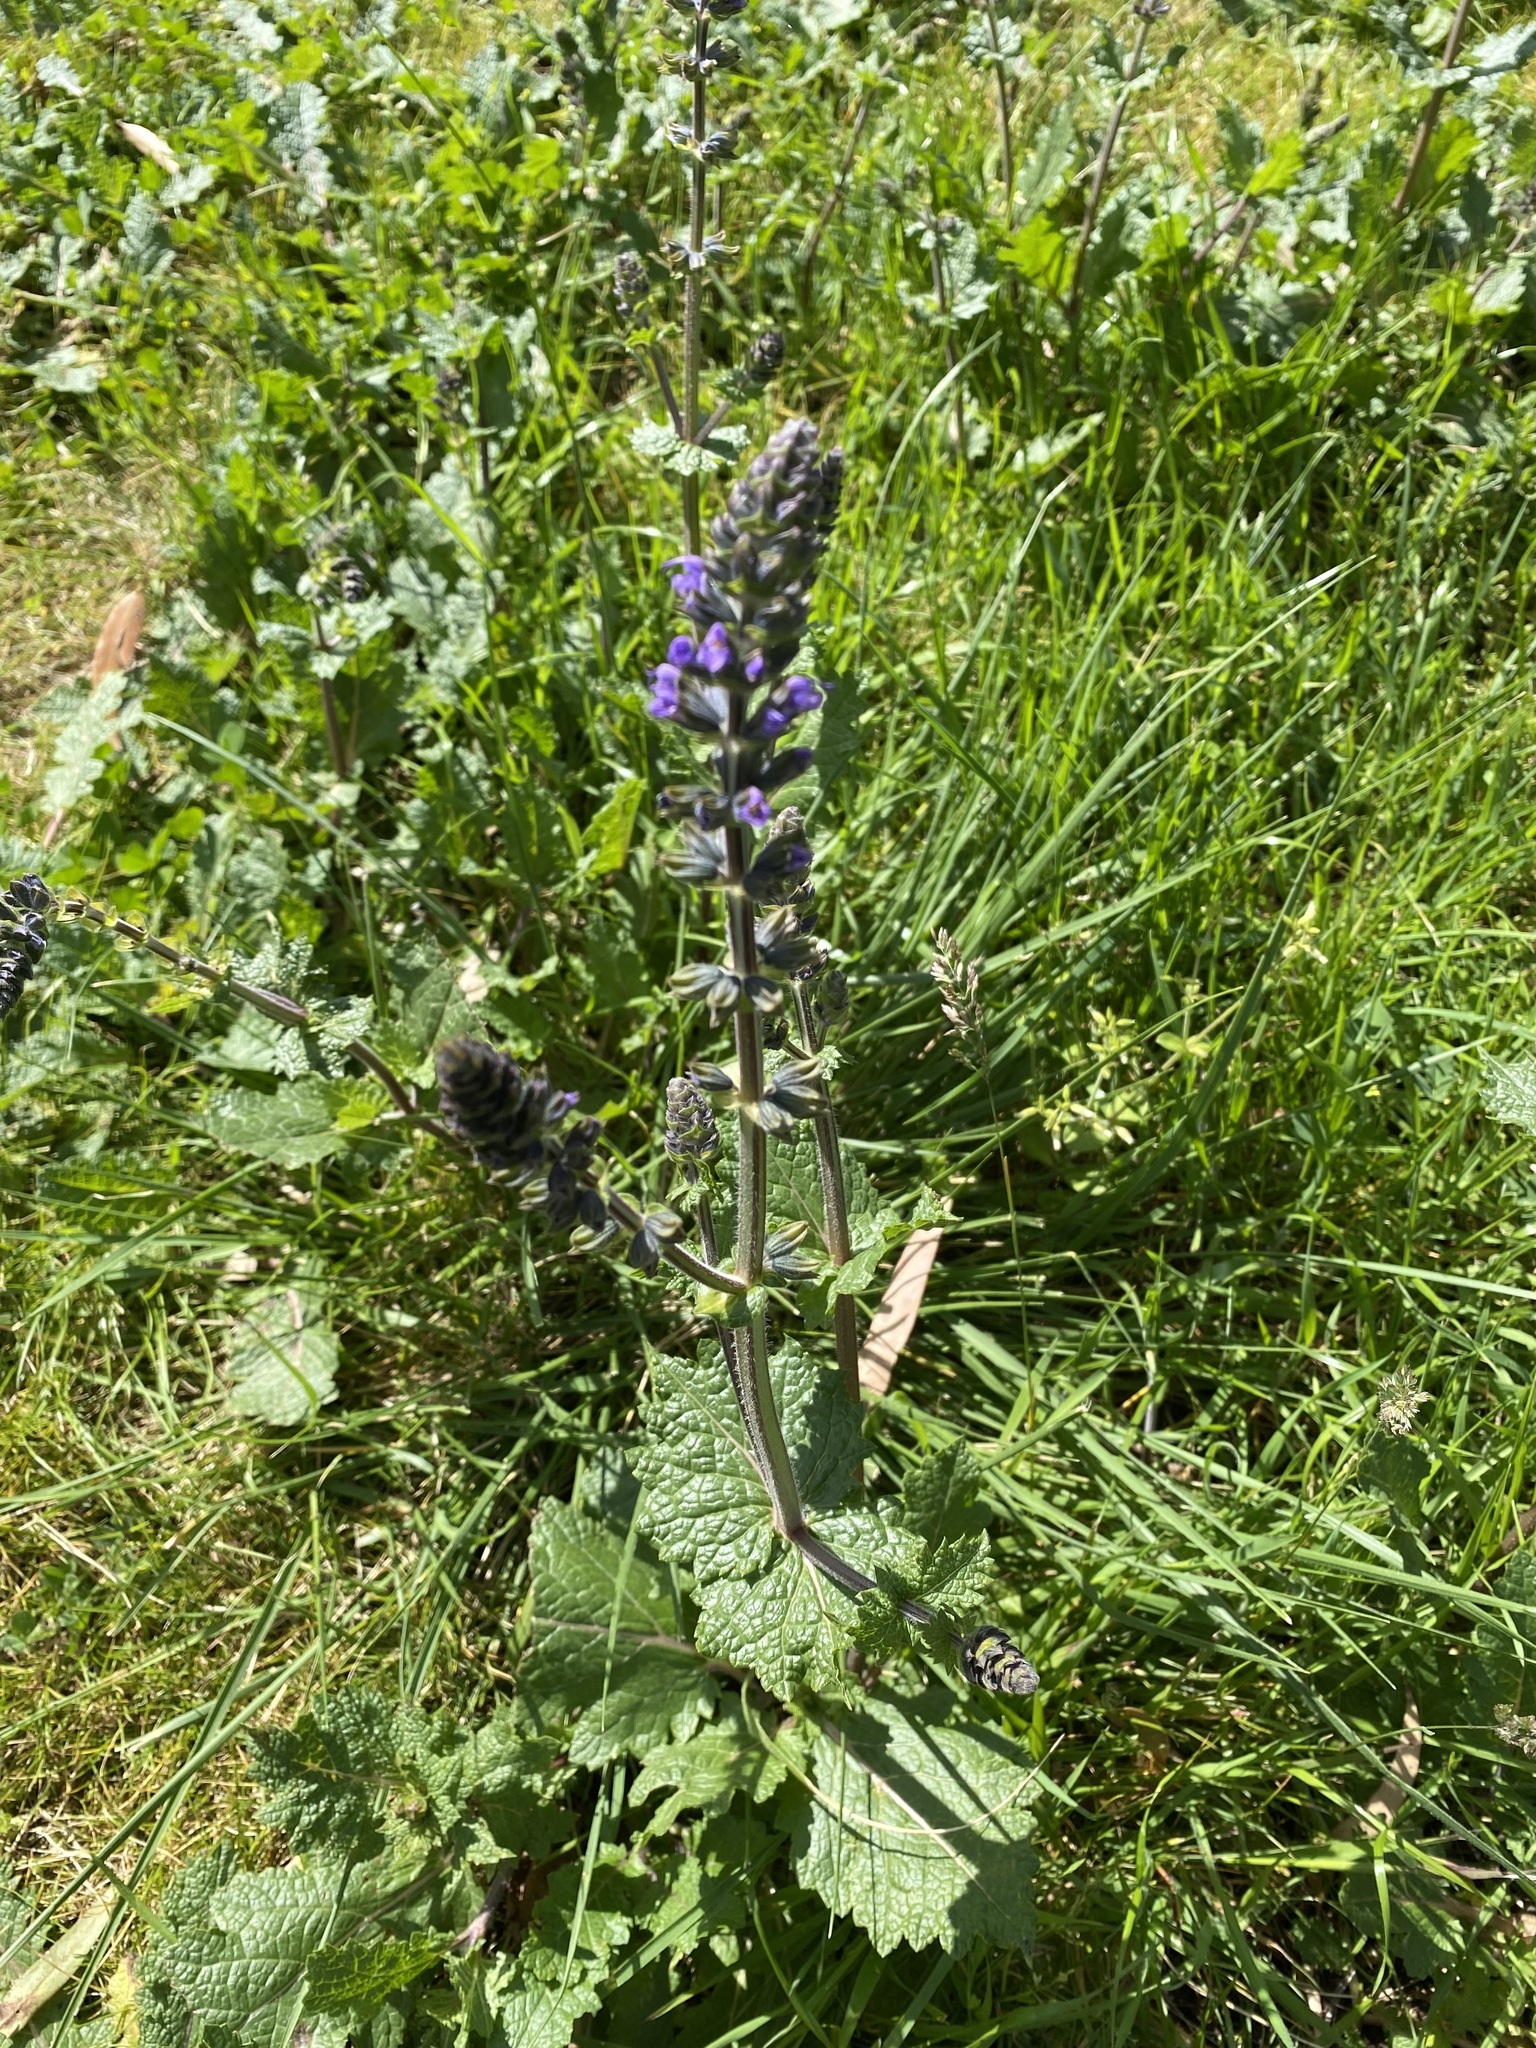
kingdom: Plantae
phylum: Tracheophyta
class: Magnoliopsida
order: Lamiales
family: Lamiaceae
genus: Salvia
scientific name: Salvia verbenaca
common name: Wild clary
